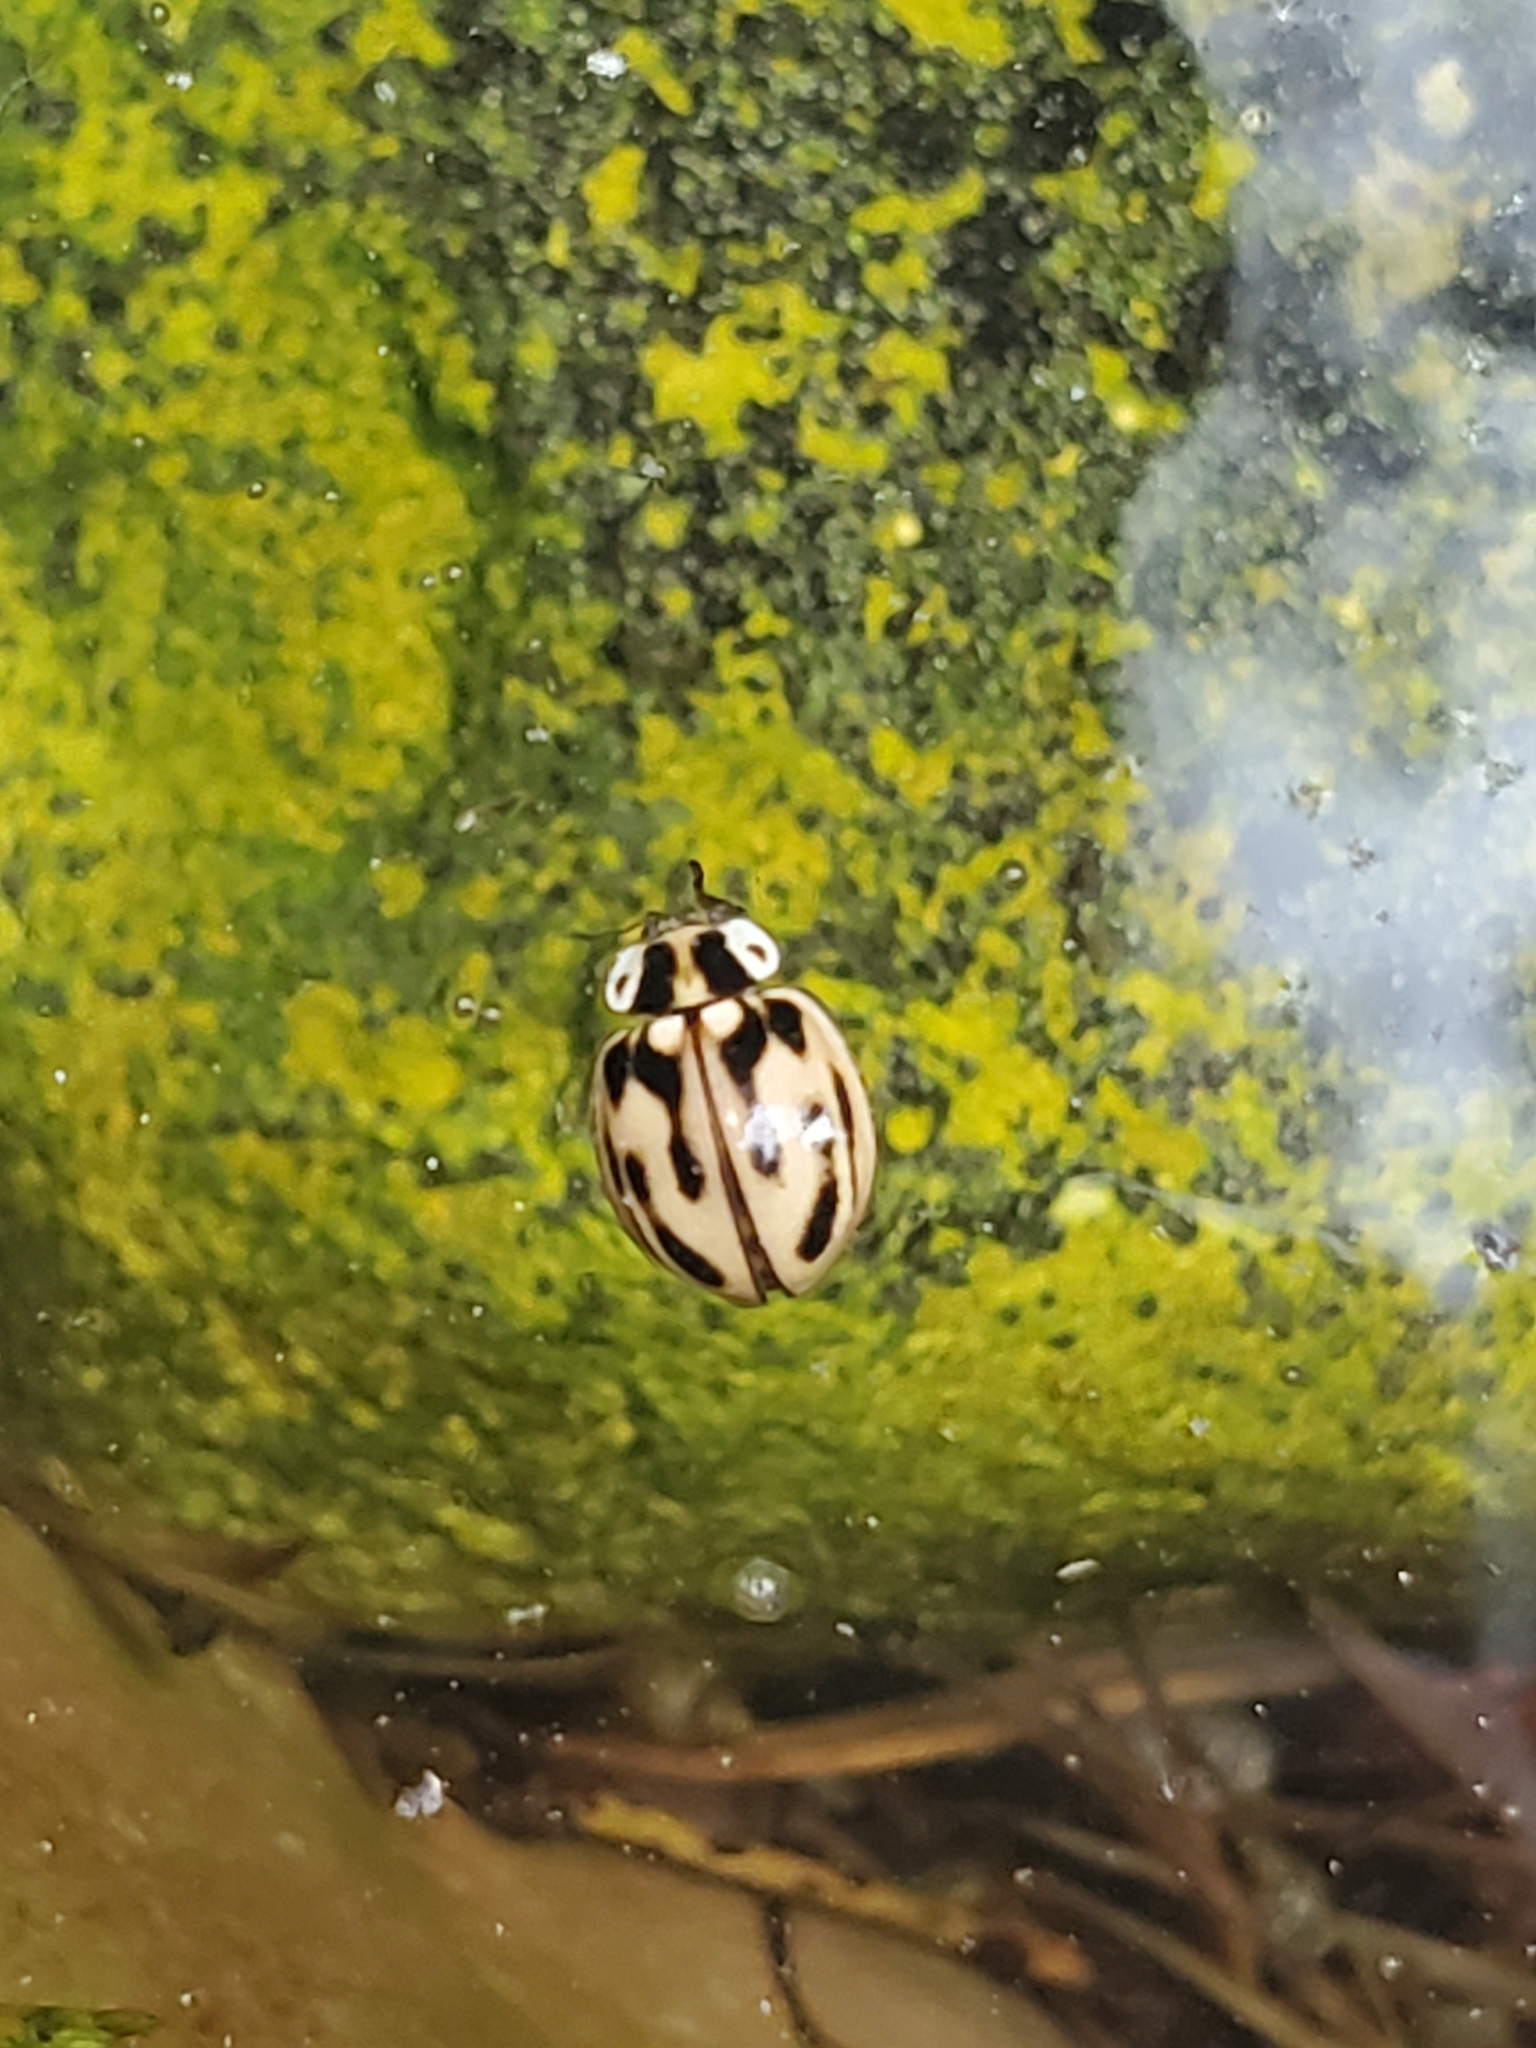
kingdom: Animalia
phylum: Arthropoda
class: Insecta
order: Coleoptera
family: Coccinellidae
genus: Myzia
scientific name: Myzia pullata
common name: Streaked lady beetle
